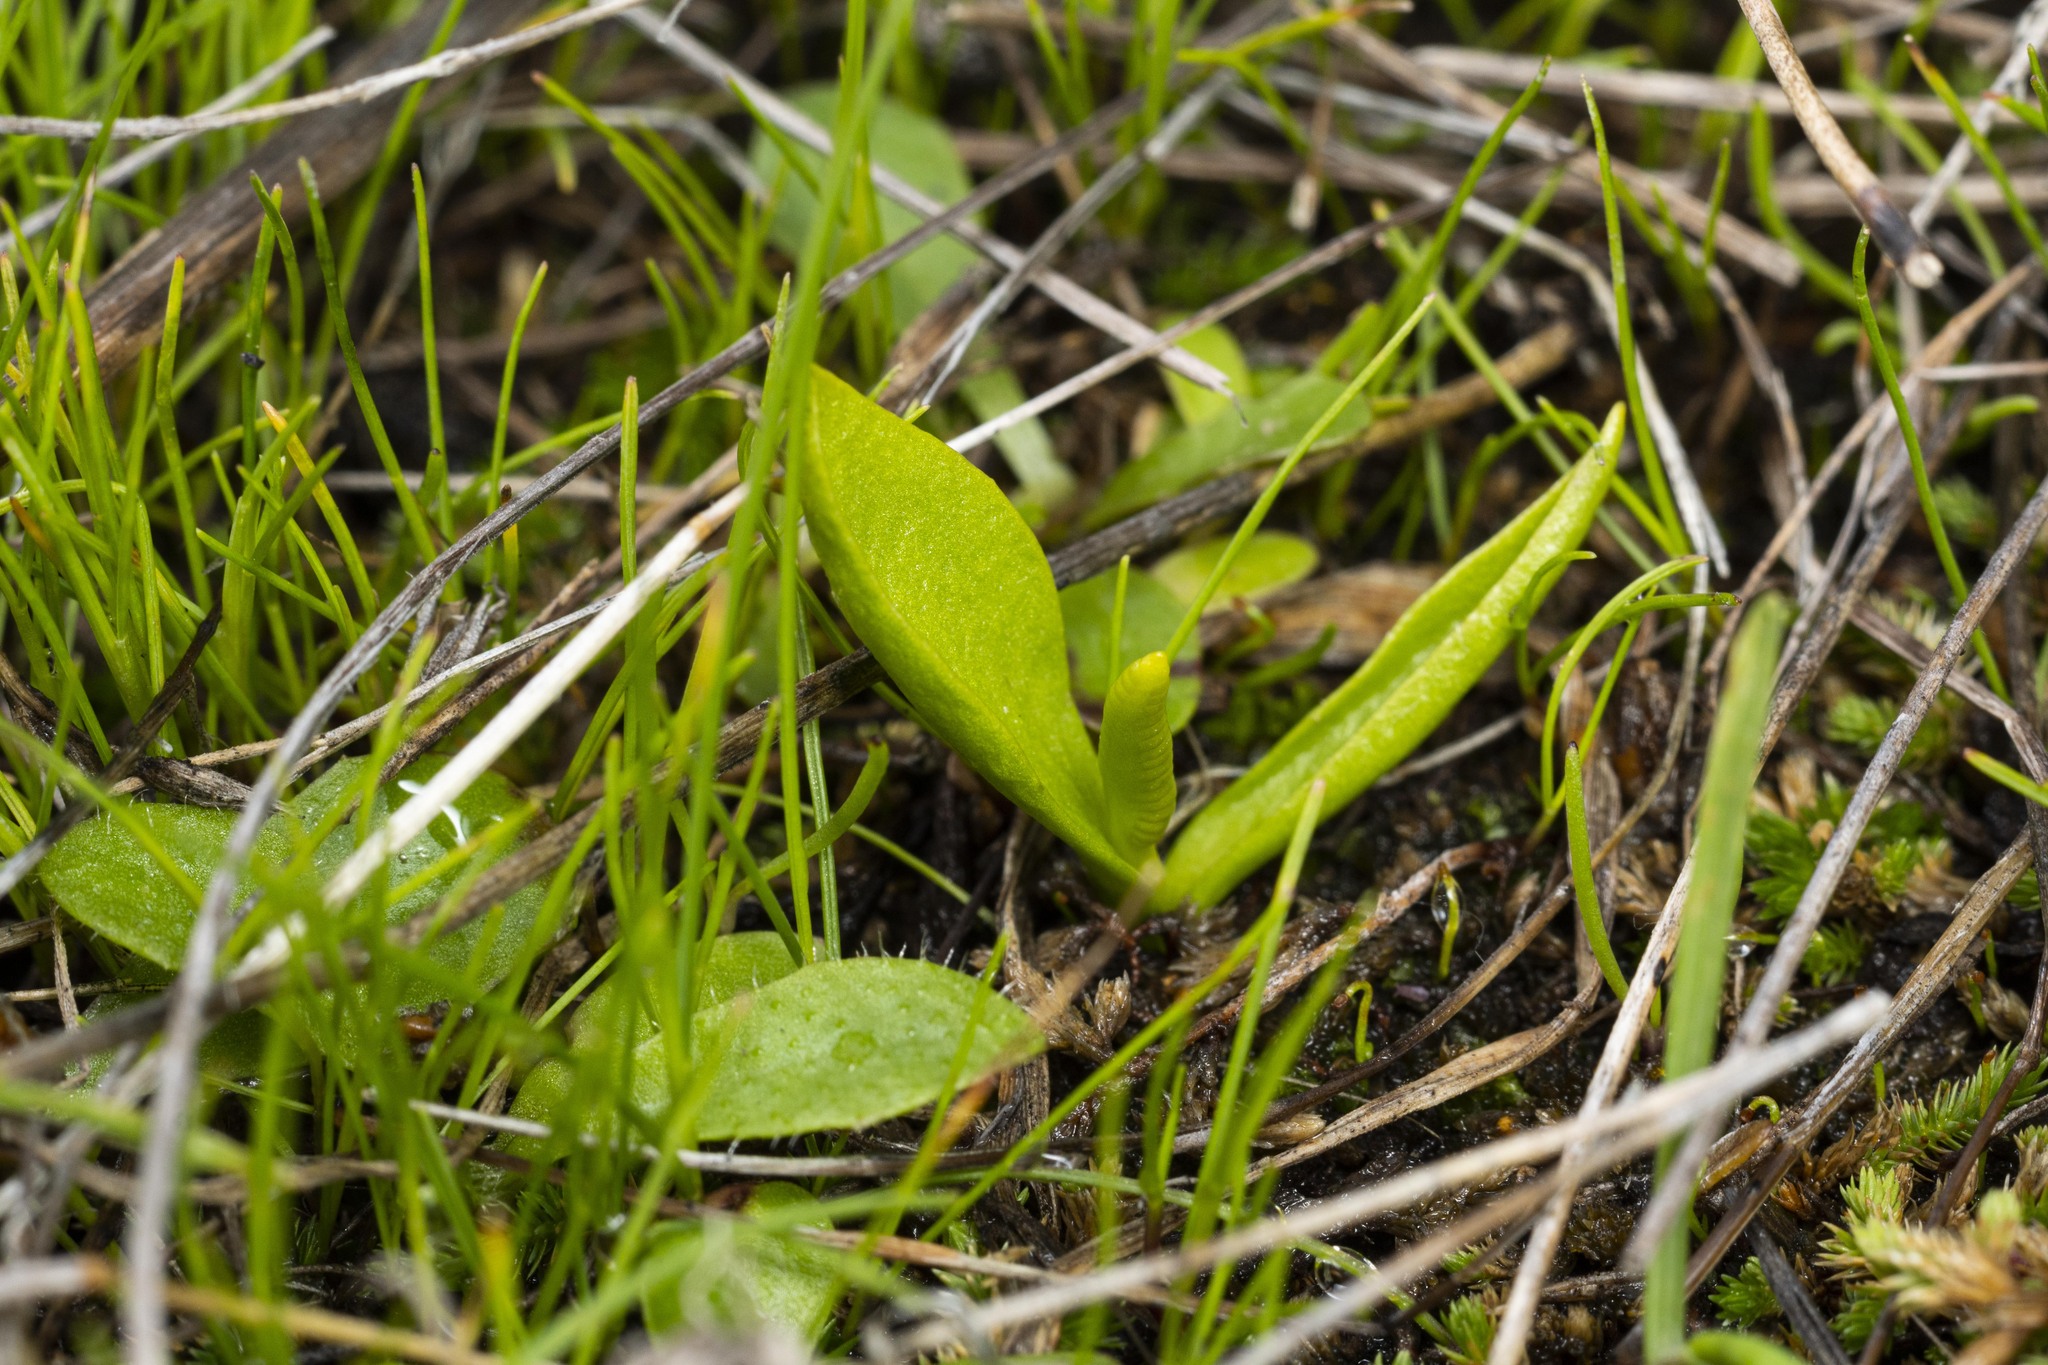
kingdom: Plantae
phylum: Tracheophyta
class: Polypodiopsida
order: Ophioglossales
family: Ophioglossaceae
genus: Ophioglossum
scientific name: Ophioglossum californicum
